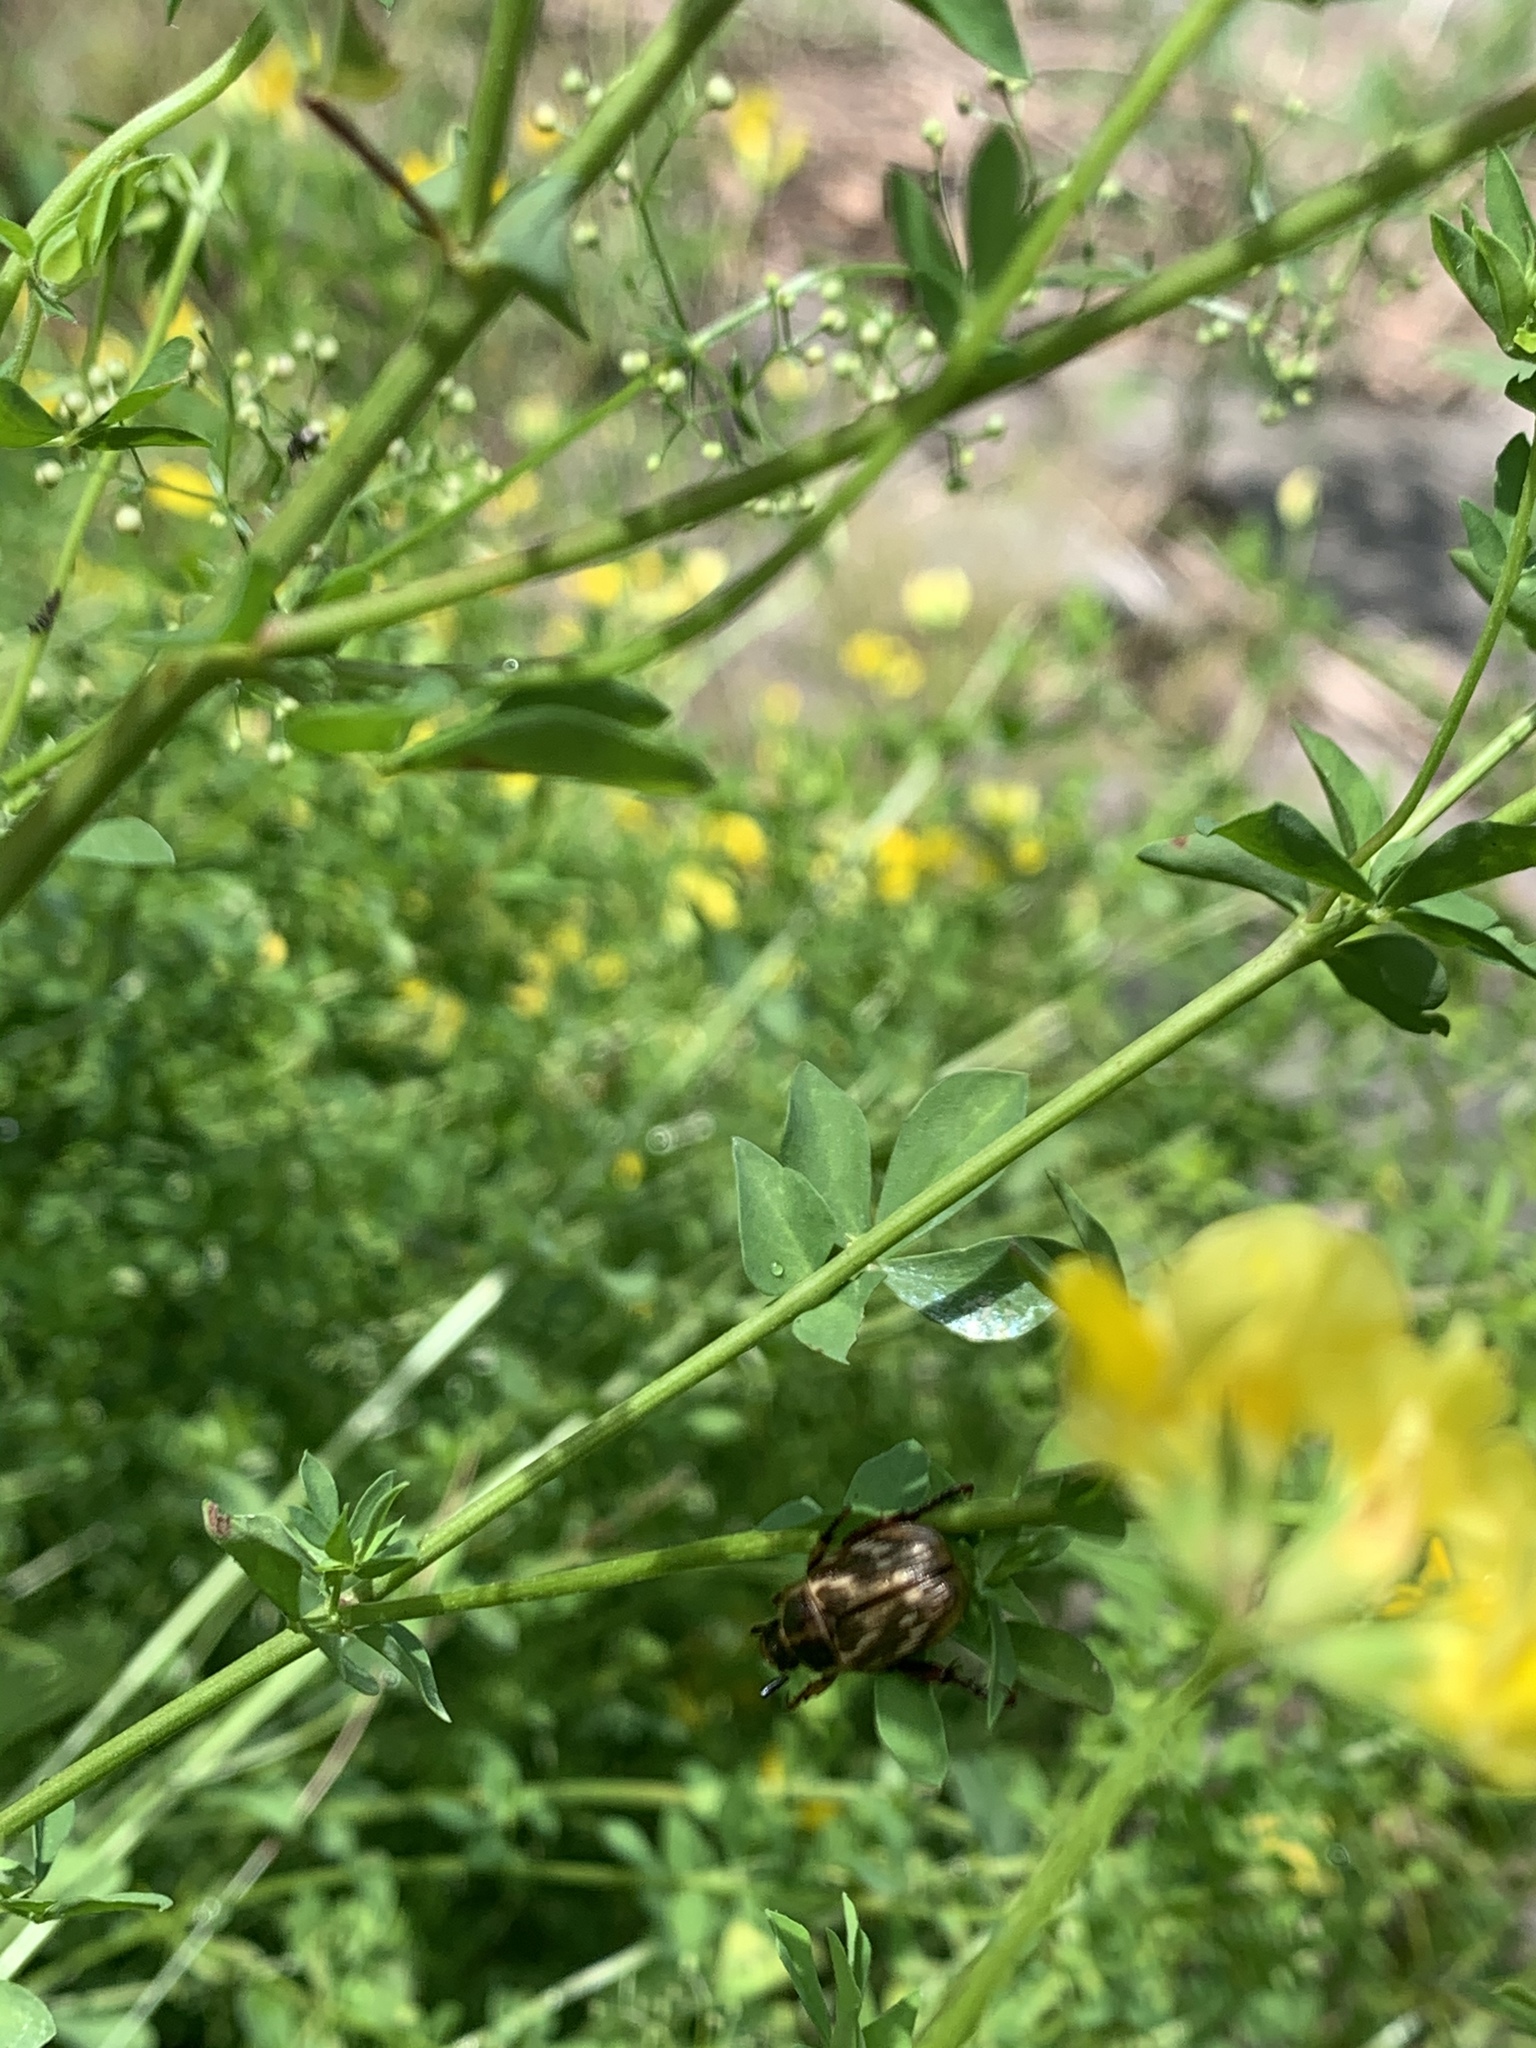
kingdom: Animalia
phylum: Arthropoda
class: Insecta
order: Coleoptera
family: Scarabaeidae
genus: Exomala
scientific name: Exomala orientalis
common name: Oriental beetle
